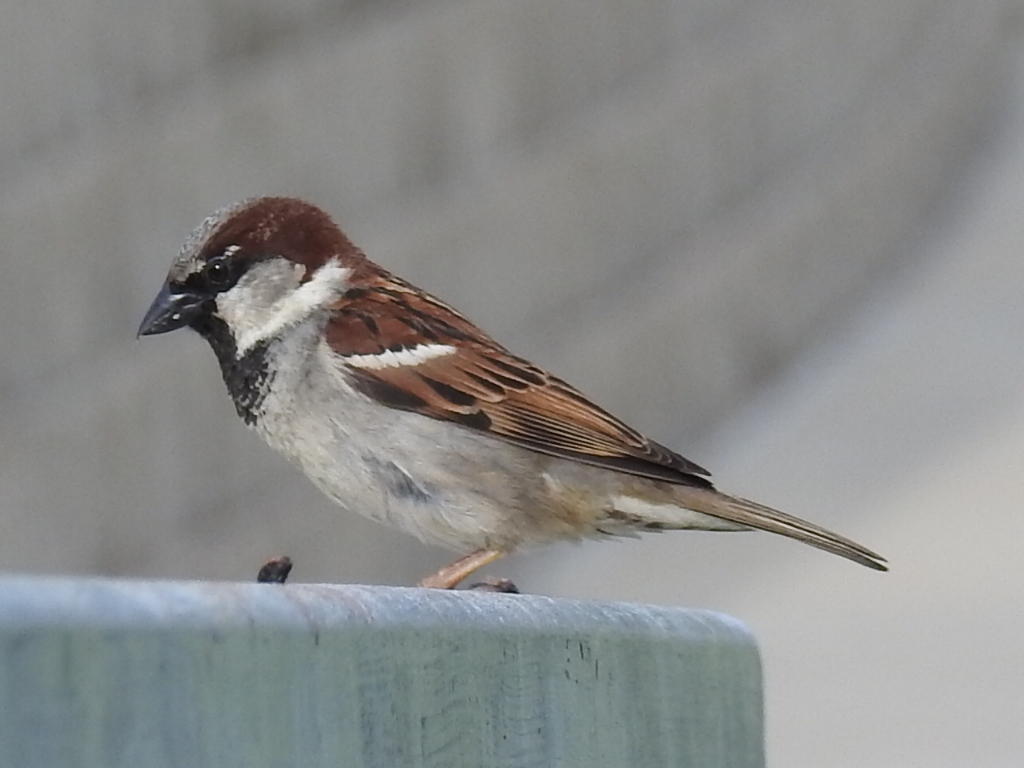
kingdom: Animalia
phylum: Chordata
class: Aves
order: Passeriformes
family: Passeridae
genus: Passer
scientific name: Passer domesticus
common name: House sparrow
